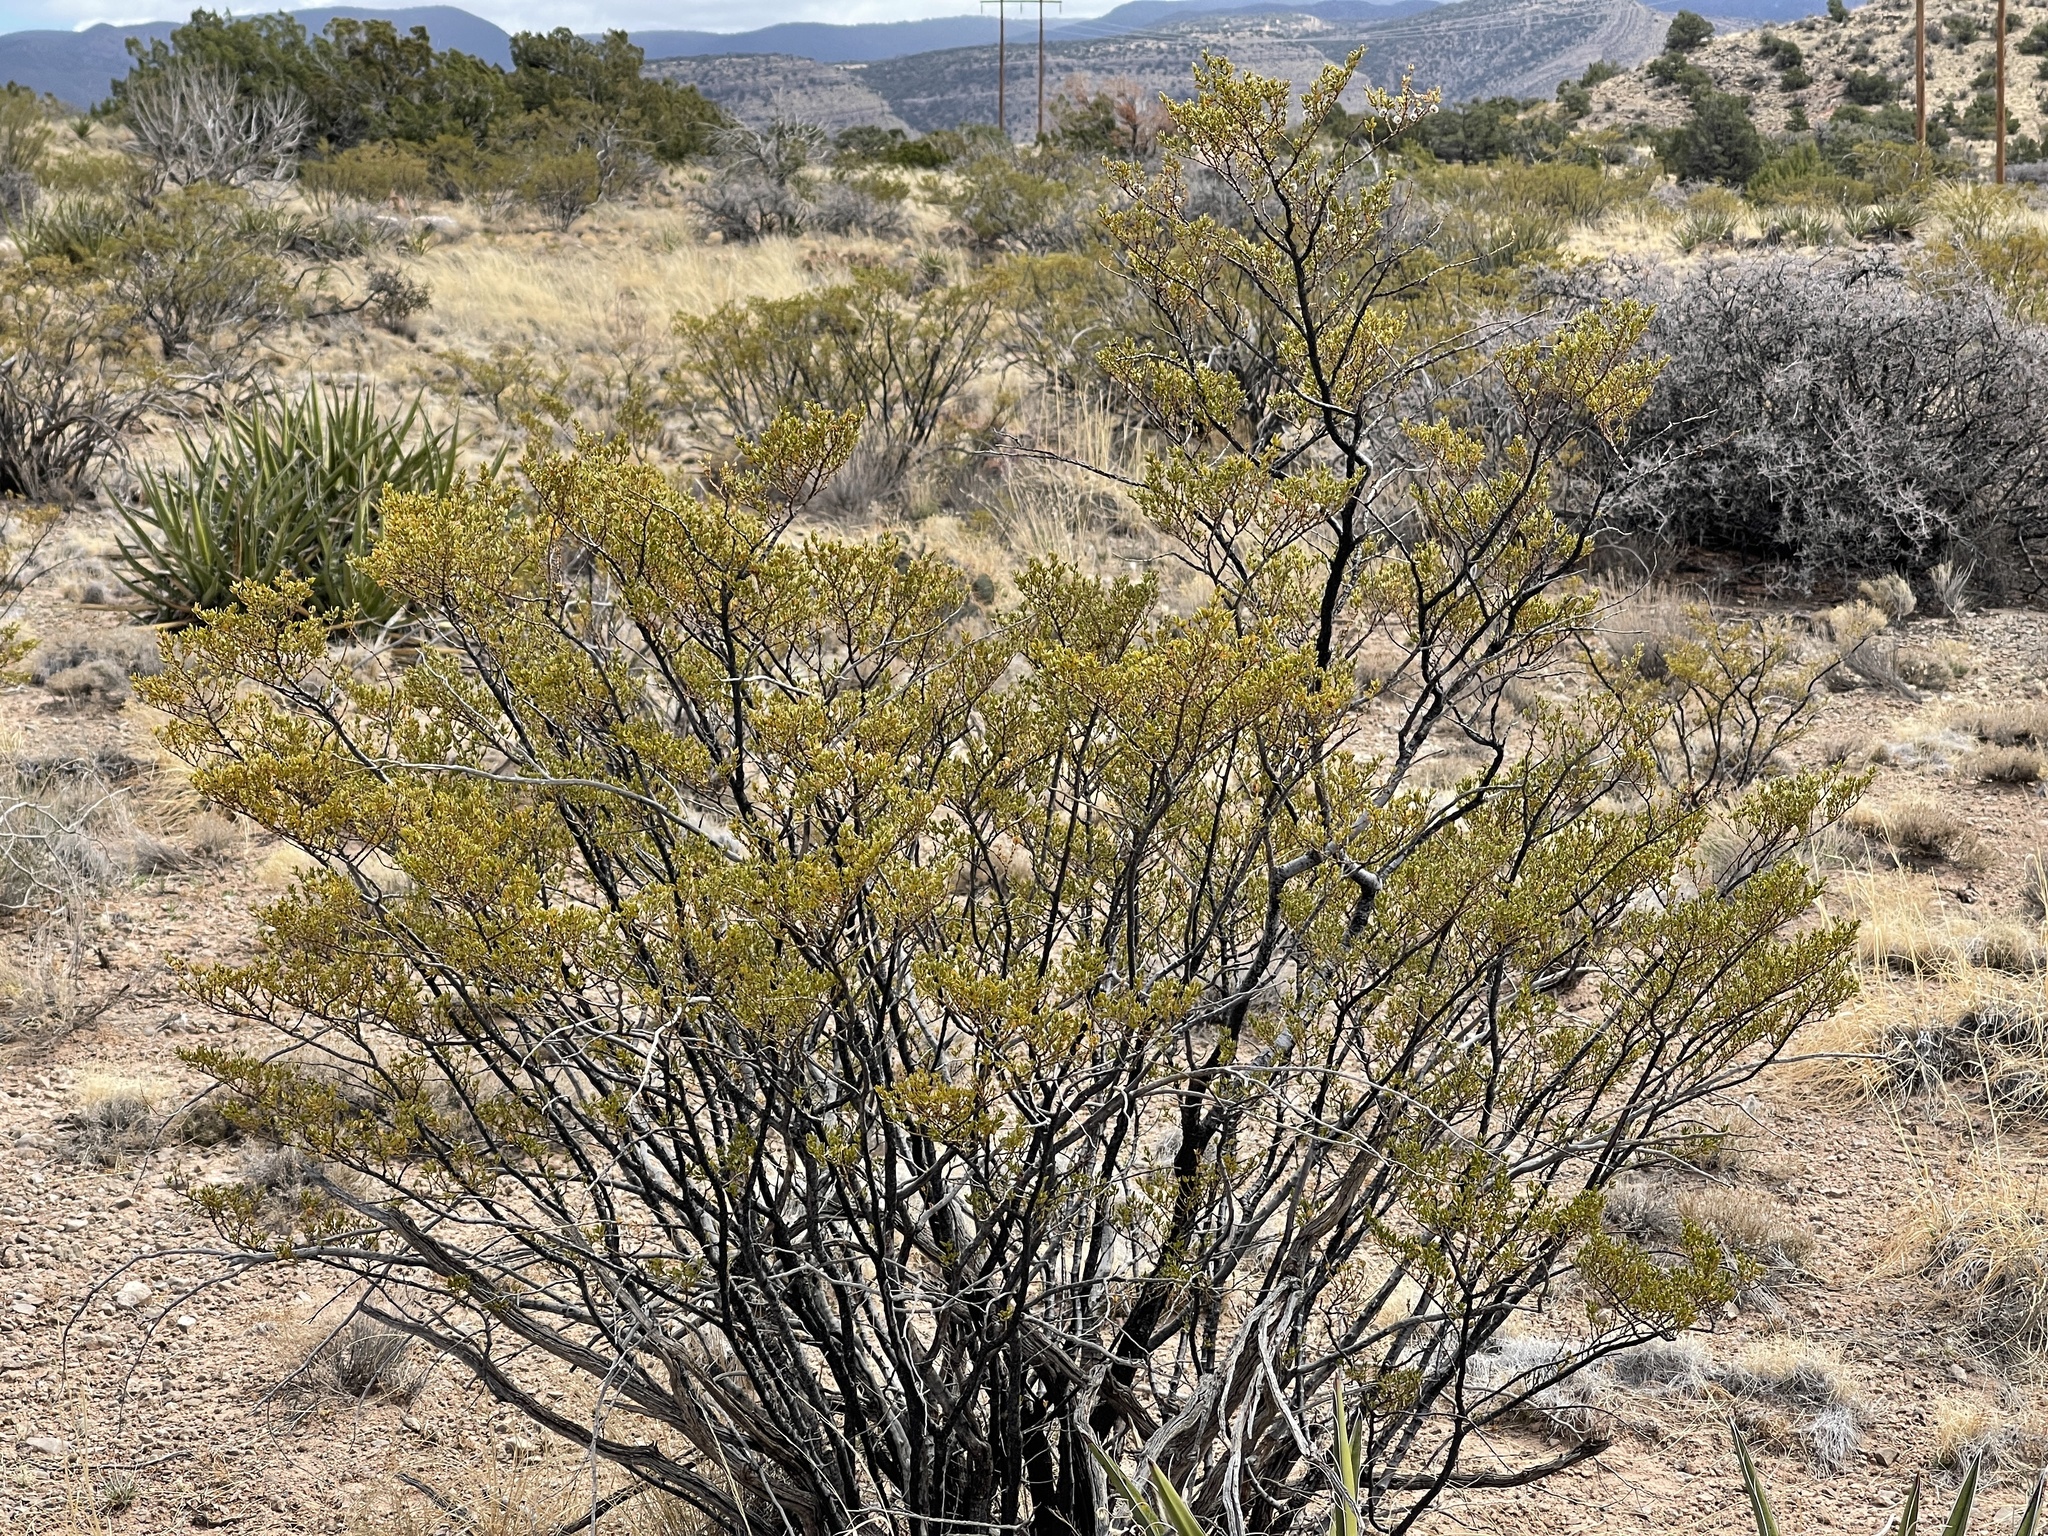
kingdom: Plantae
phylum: Tracheophyta
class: Magnoliopsida
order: Zygophyllales
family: Zygophyllaceae
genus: Larrea
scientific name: Larrea tridentata
